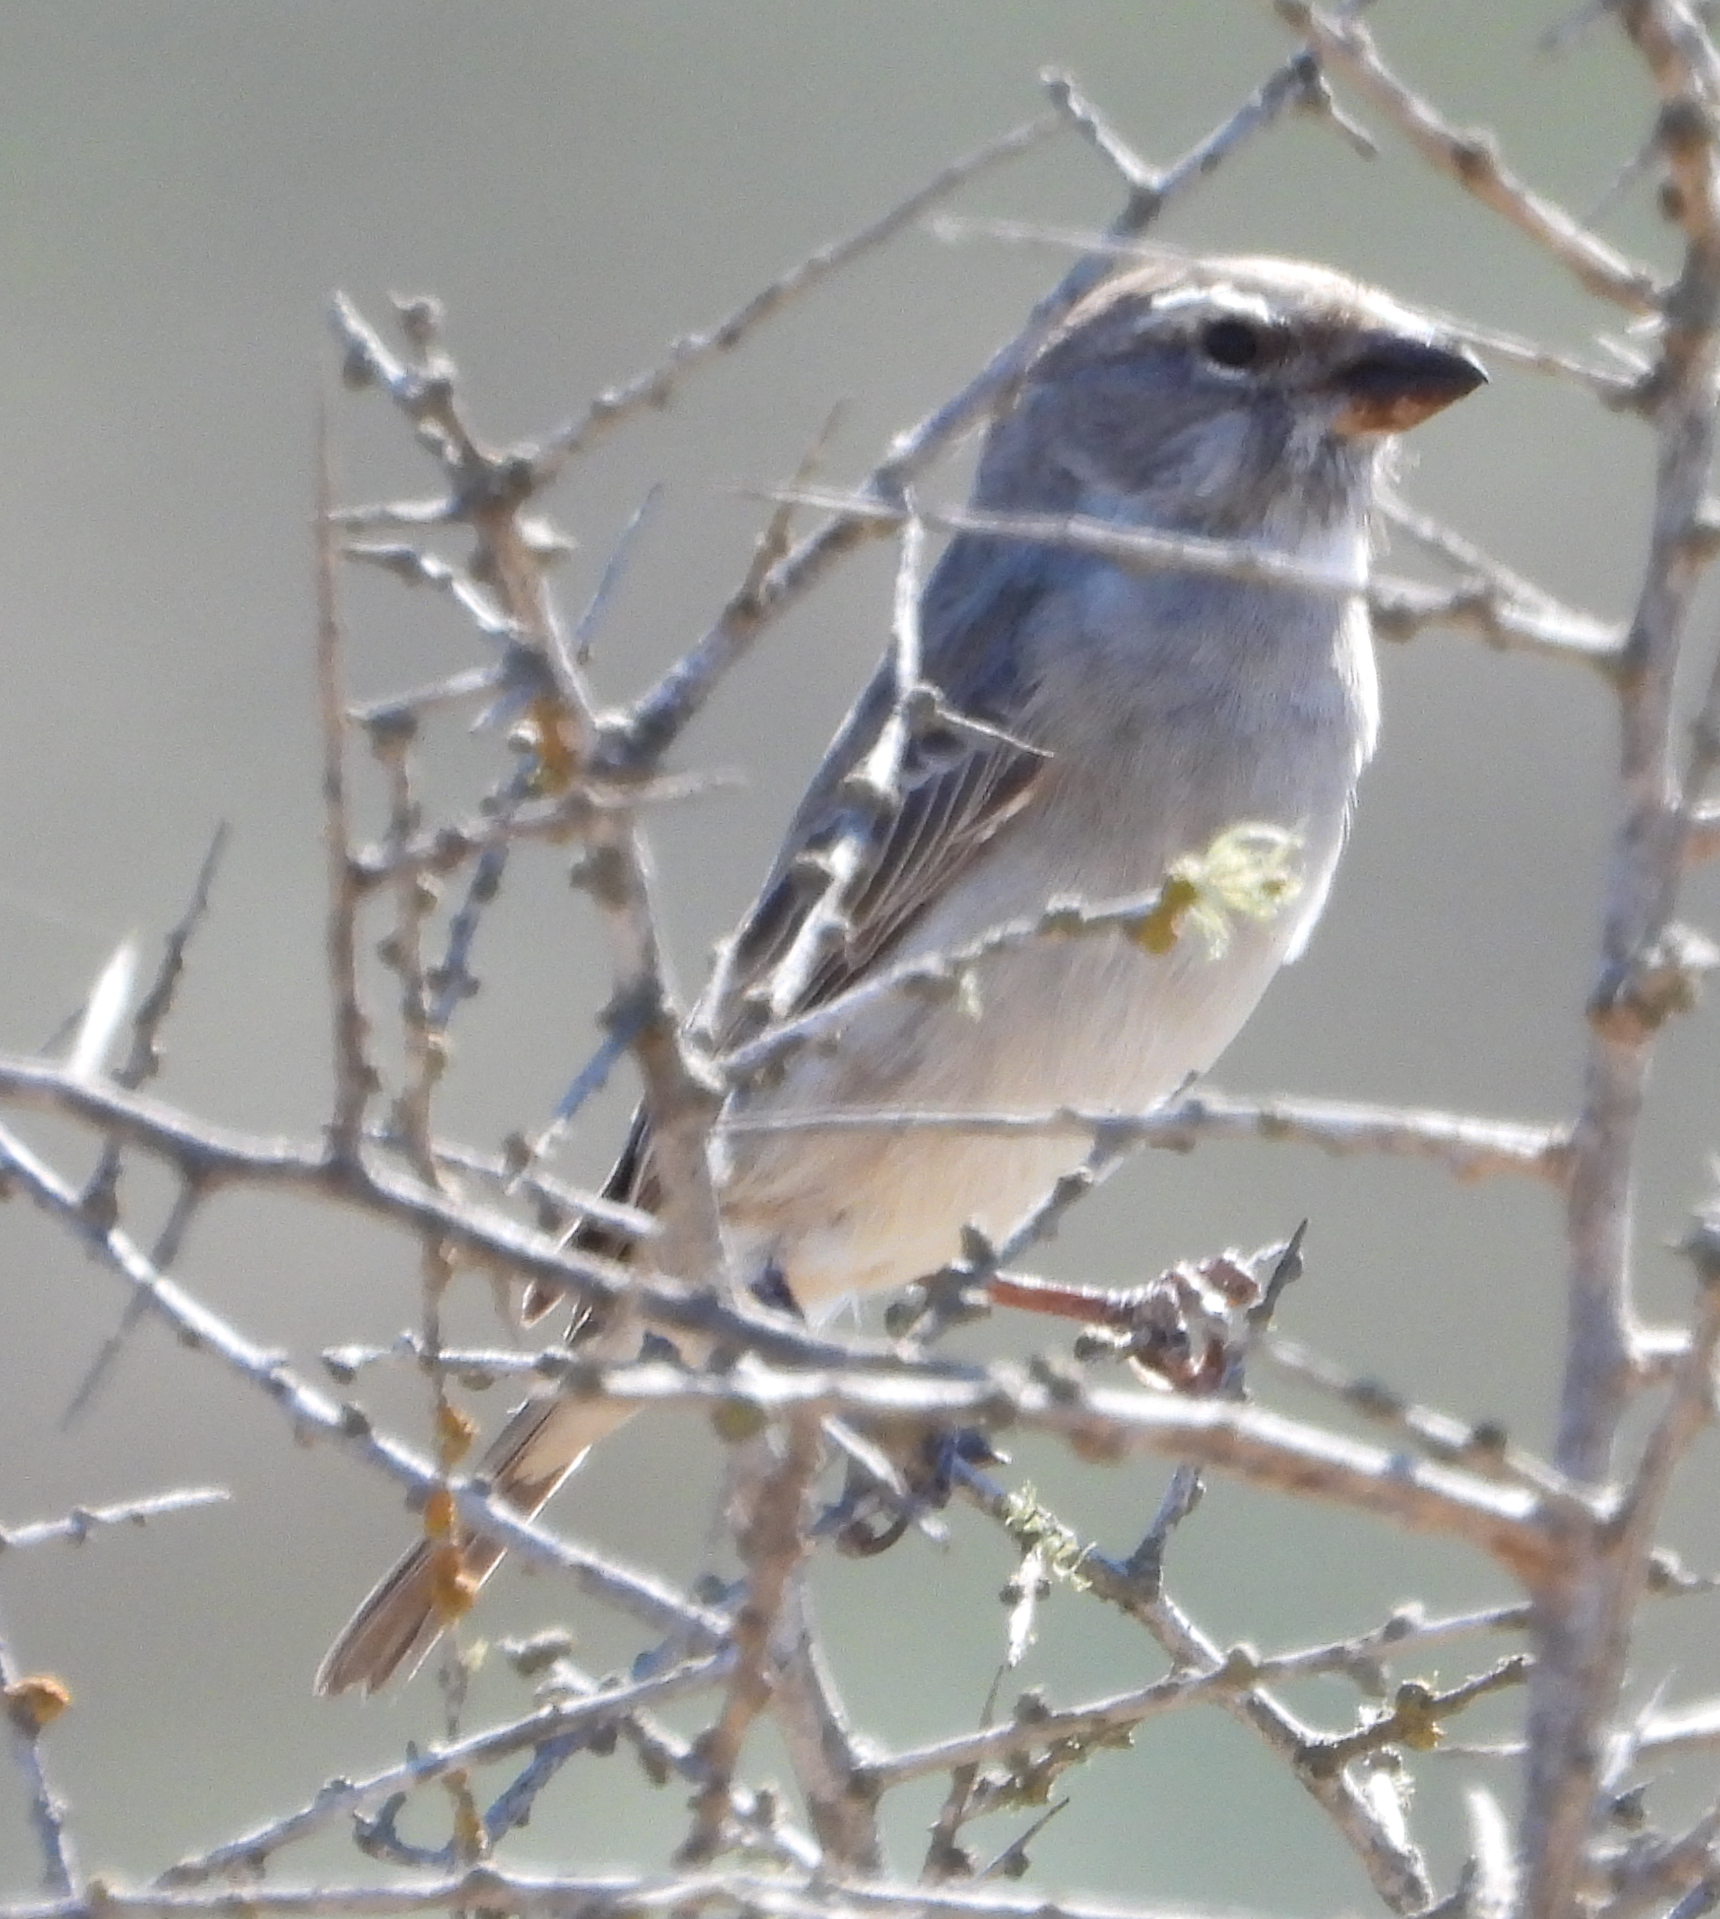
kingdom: Animalia
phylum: Chordata
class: Aves
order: Passeriformes
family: Fringillidae
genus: Crithagra
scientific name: Crithagra albogularis
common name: White-throated canary
